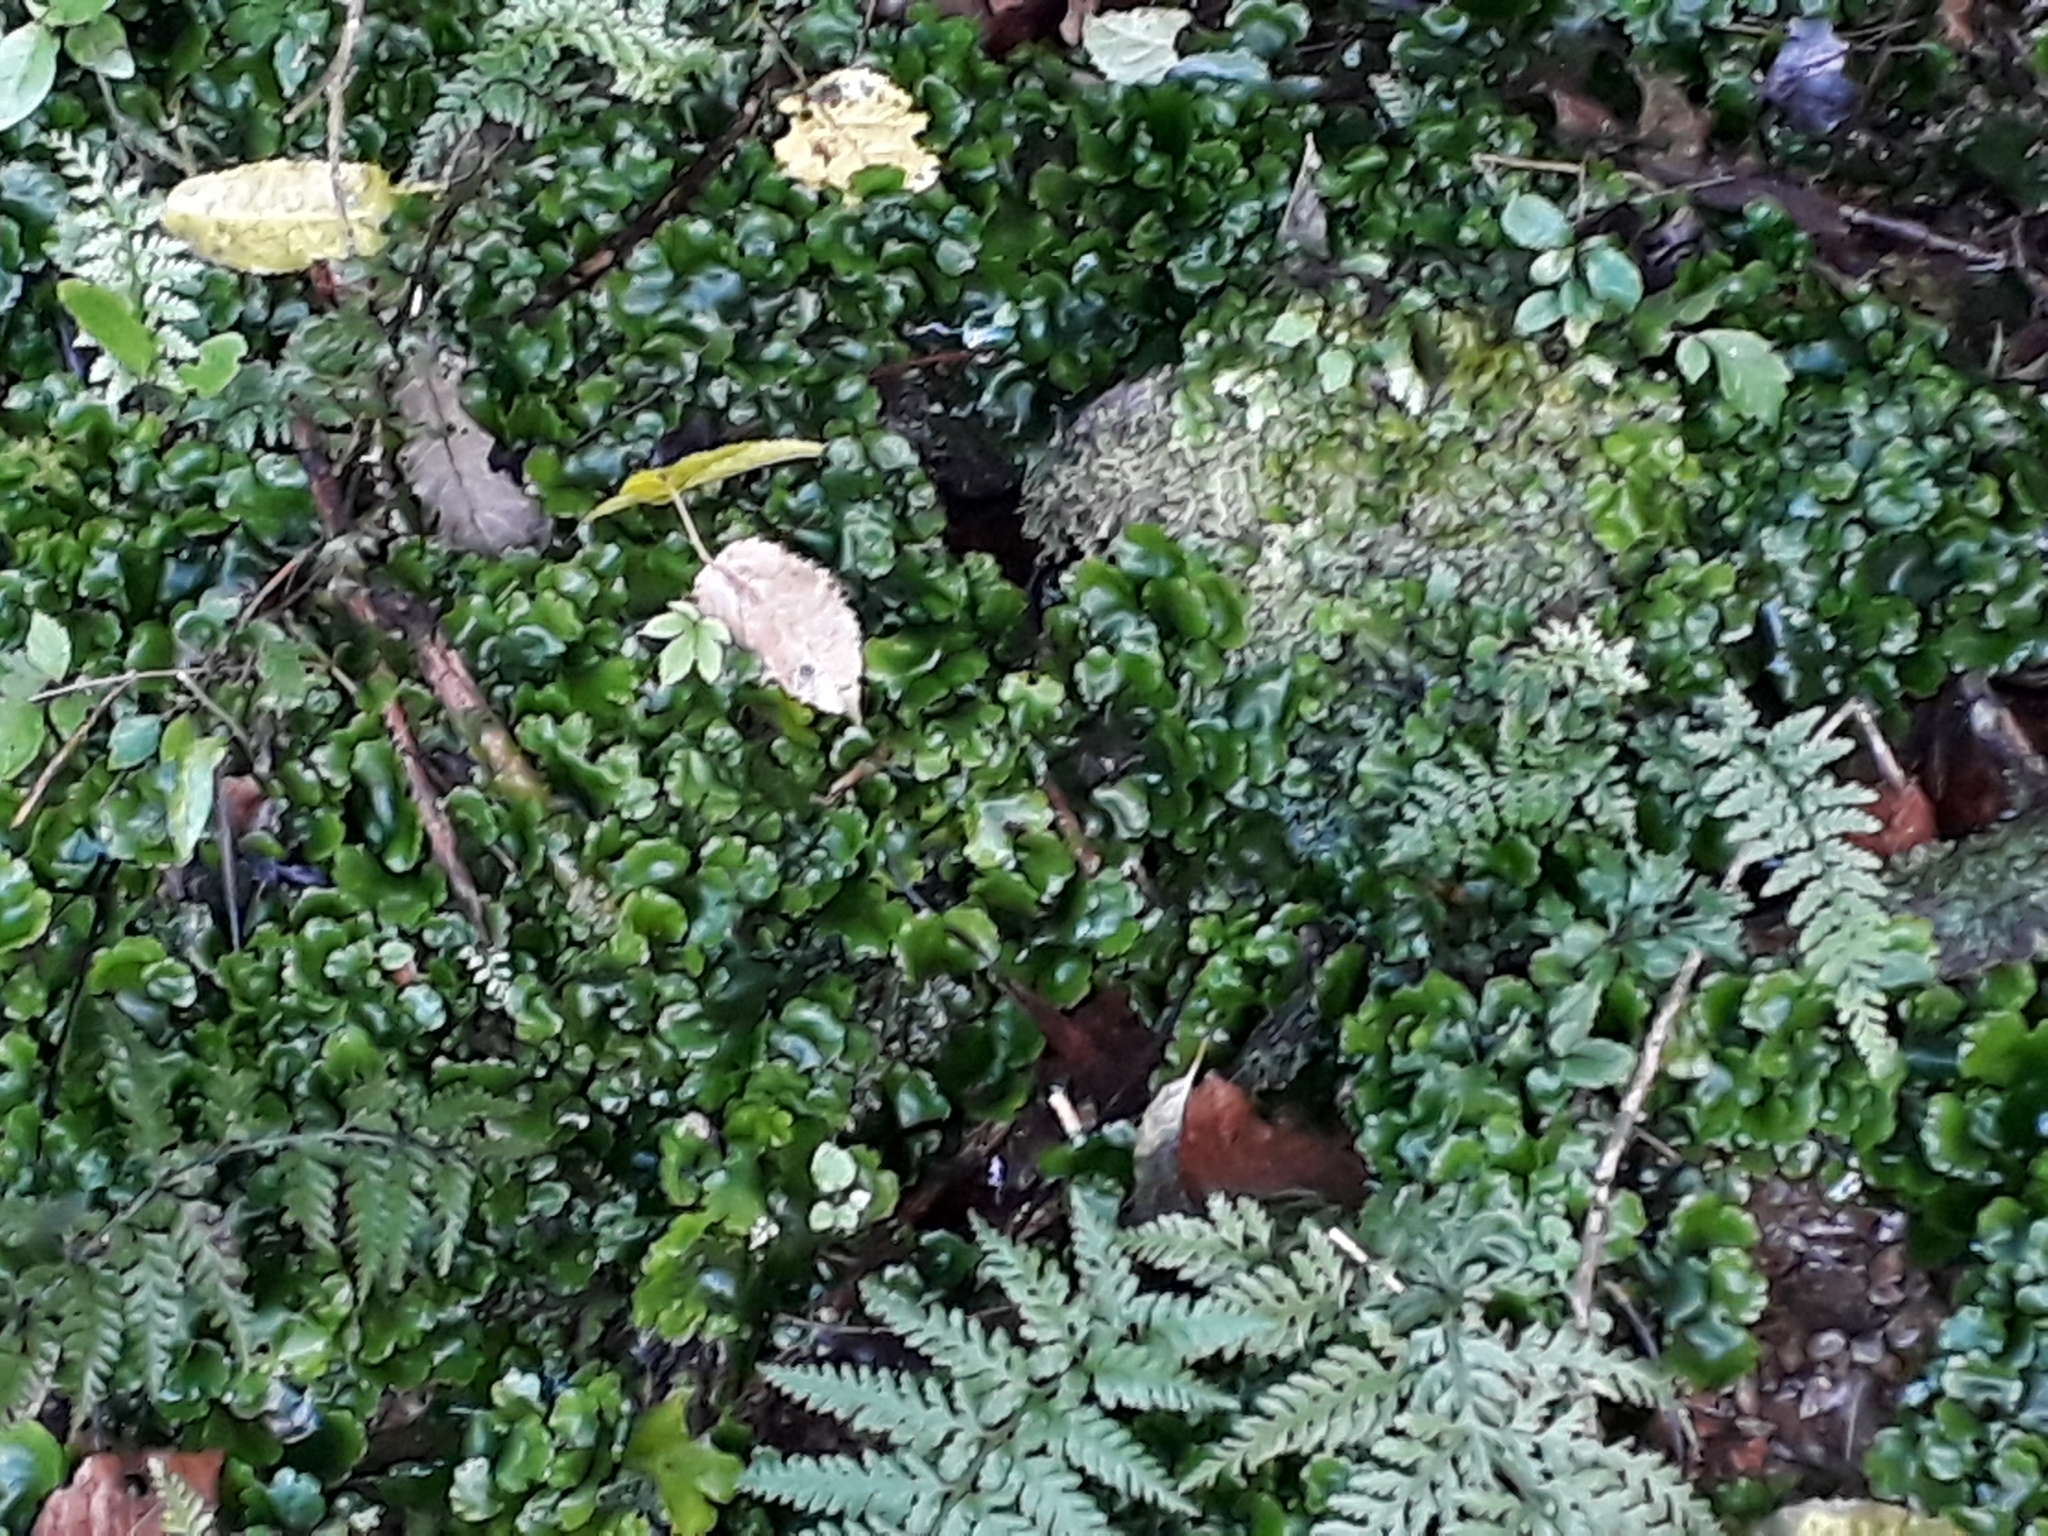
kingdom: Plantae
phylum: Marchantiophyta
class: Marchantiopsida
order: Marchantiales
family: Monocleaceae
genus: Monoclea
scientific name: Monoclea forsteri
